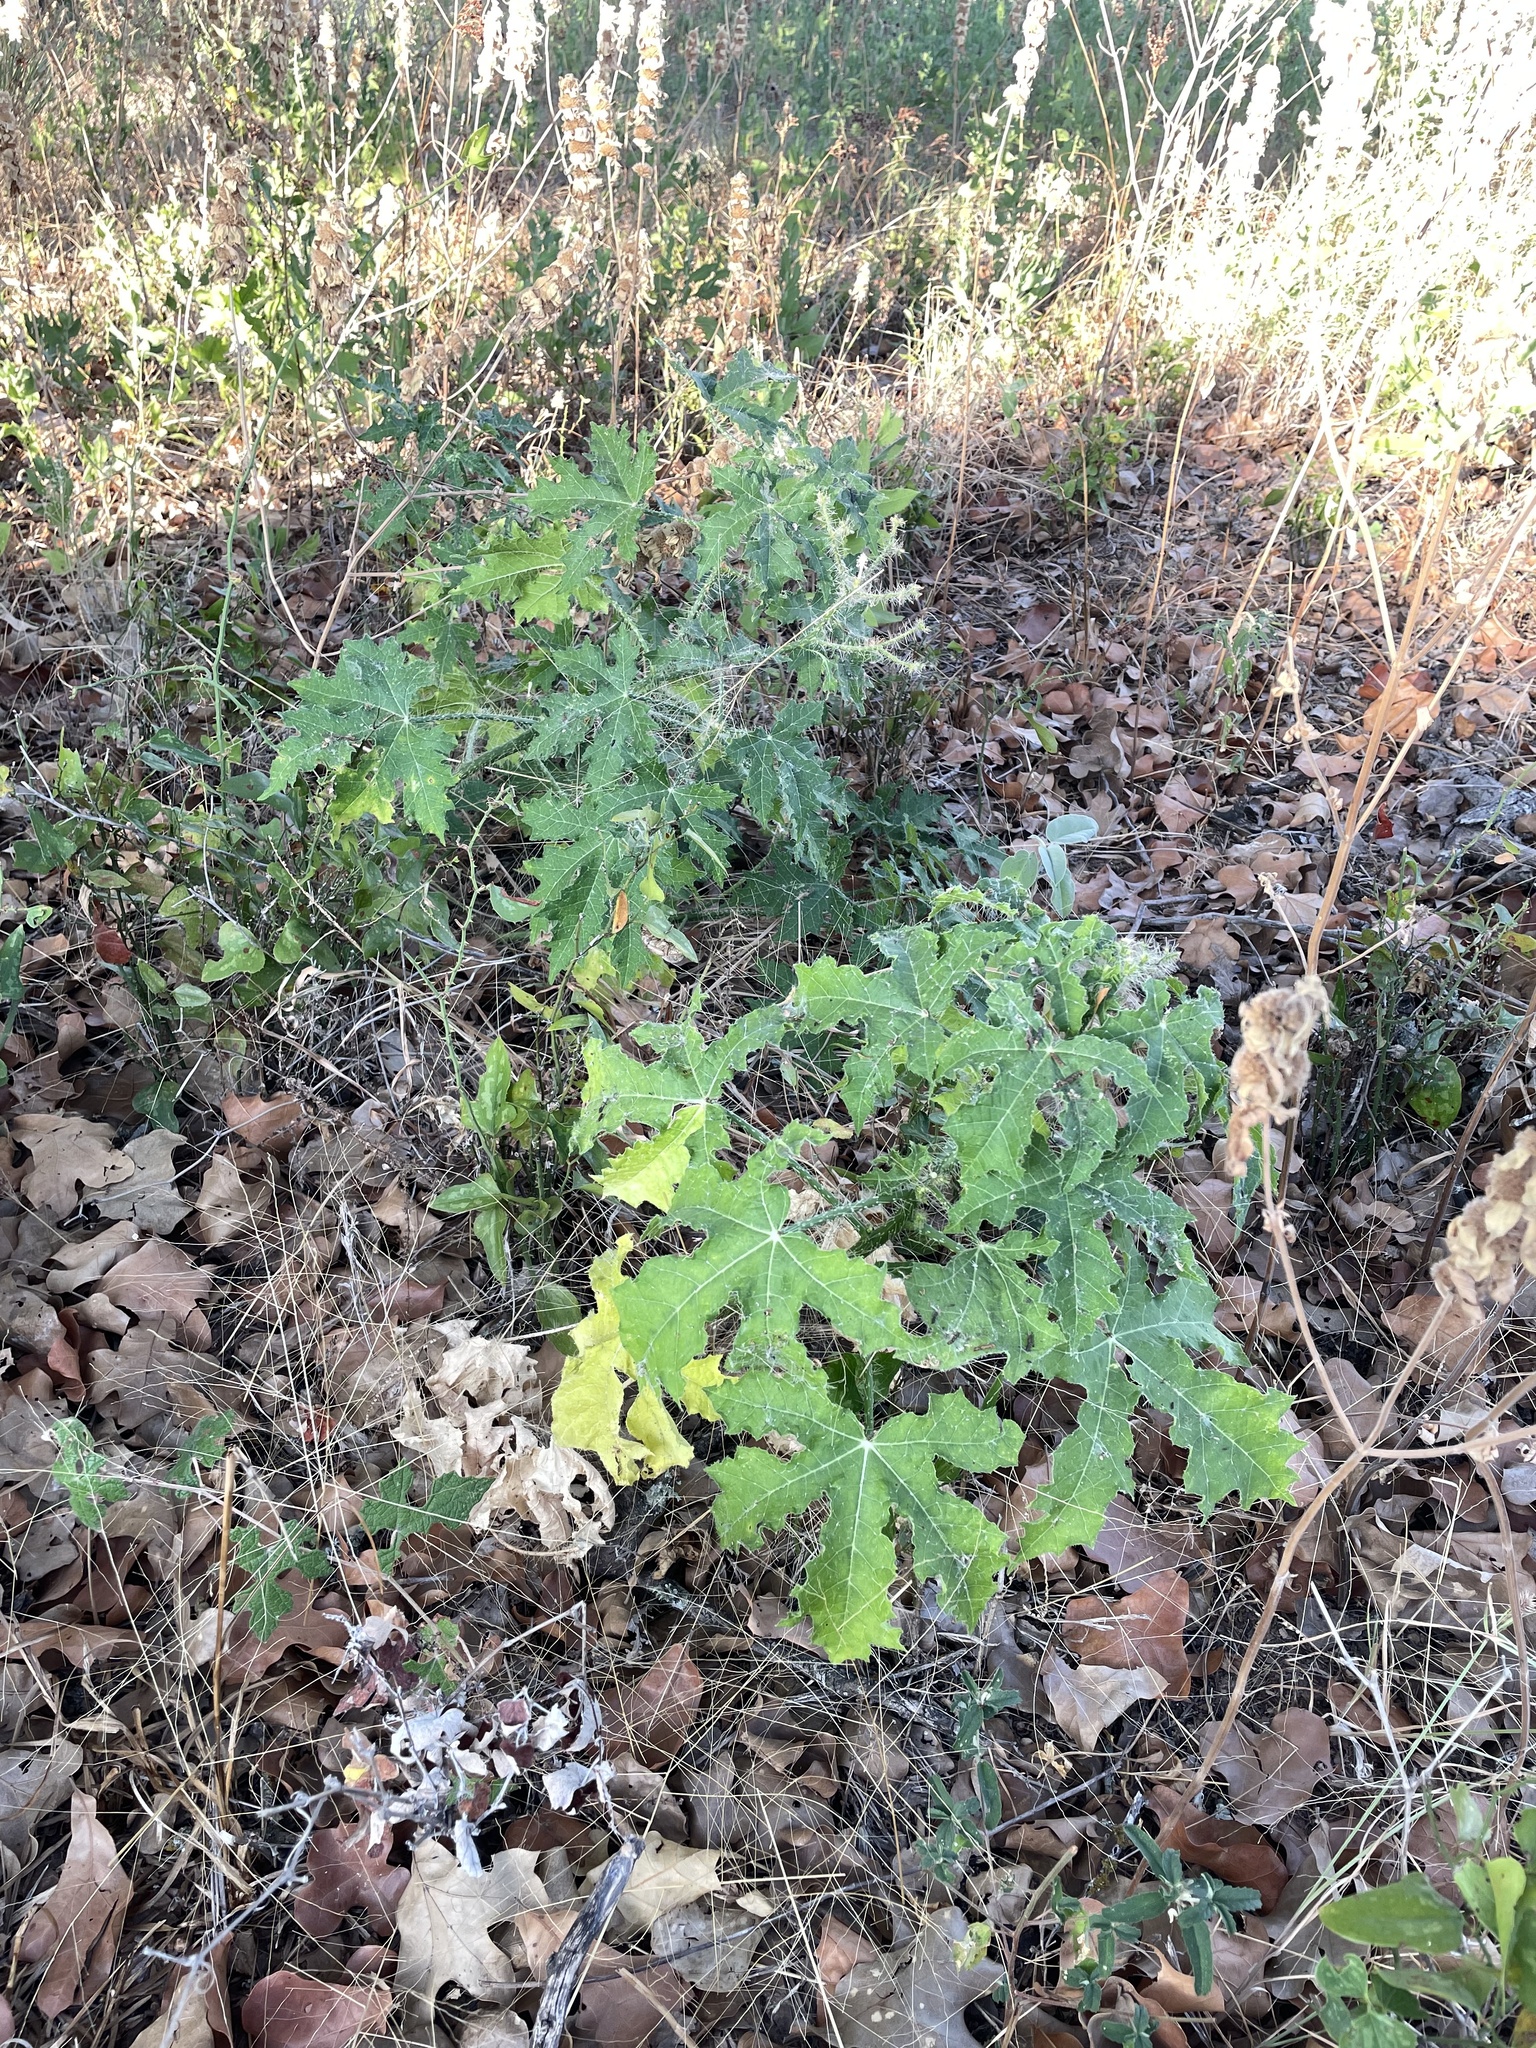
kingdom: Plantae
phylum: Tracheophyta
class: Magnoliopsida
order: Malpighiales
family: Euphorbiaceae
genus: Cnidoscolus
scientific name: Cnidoscolus texanus
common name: Texas bull-nettle
